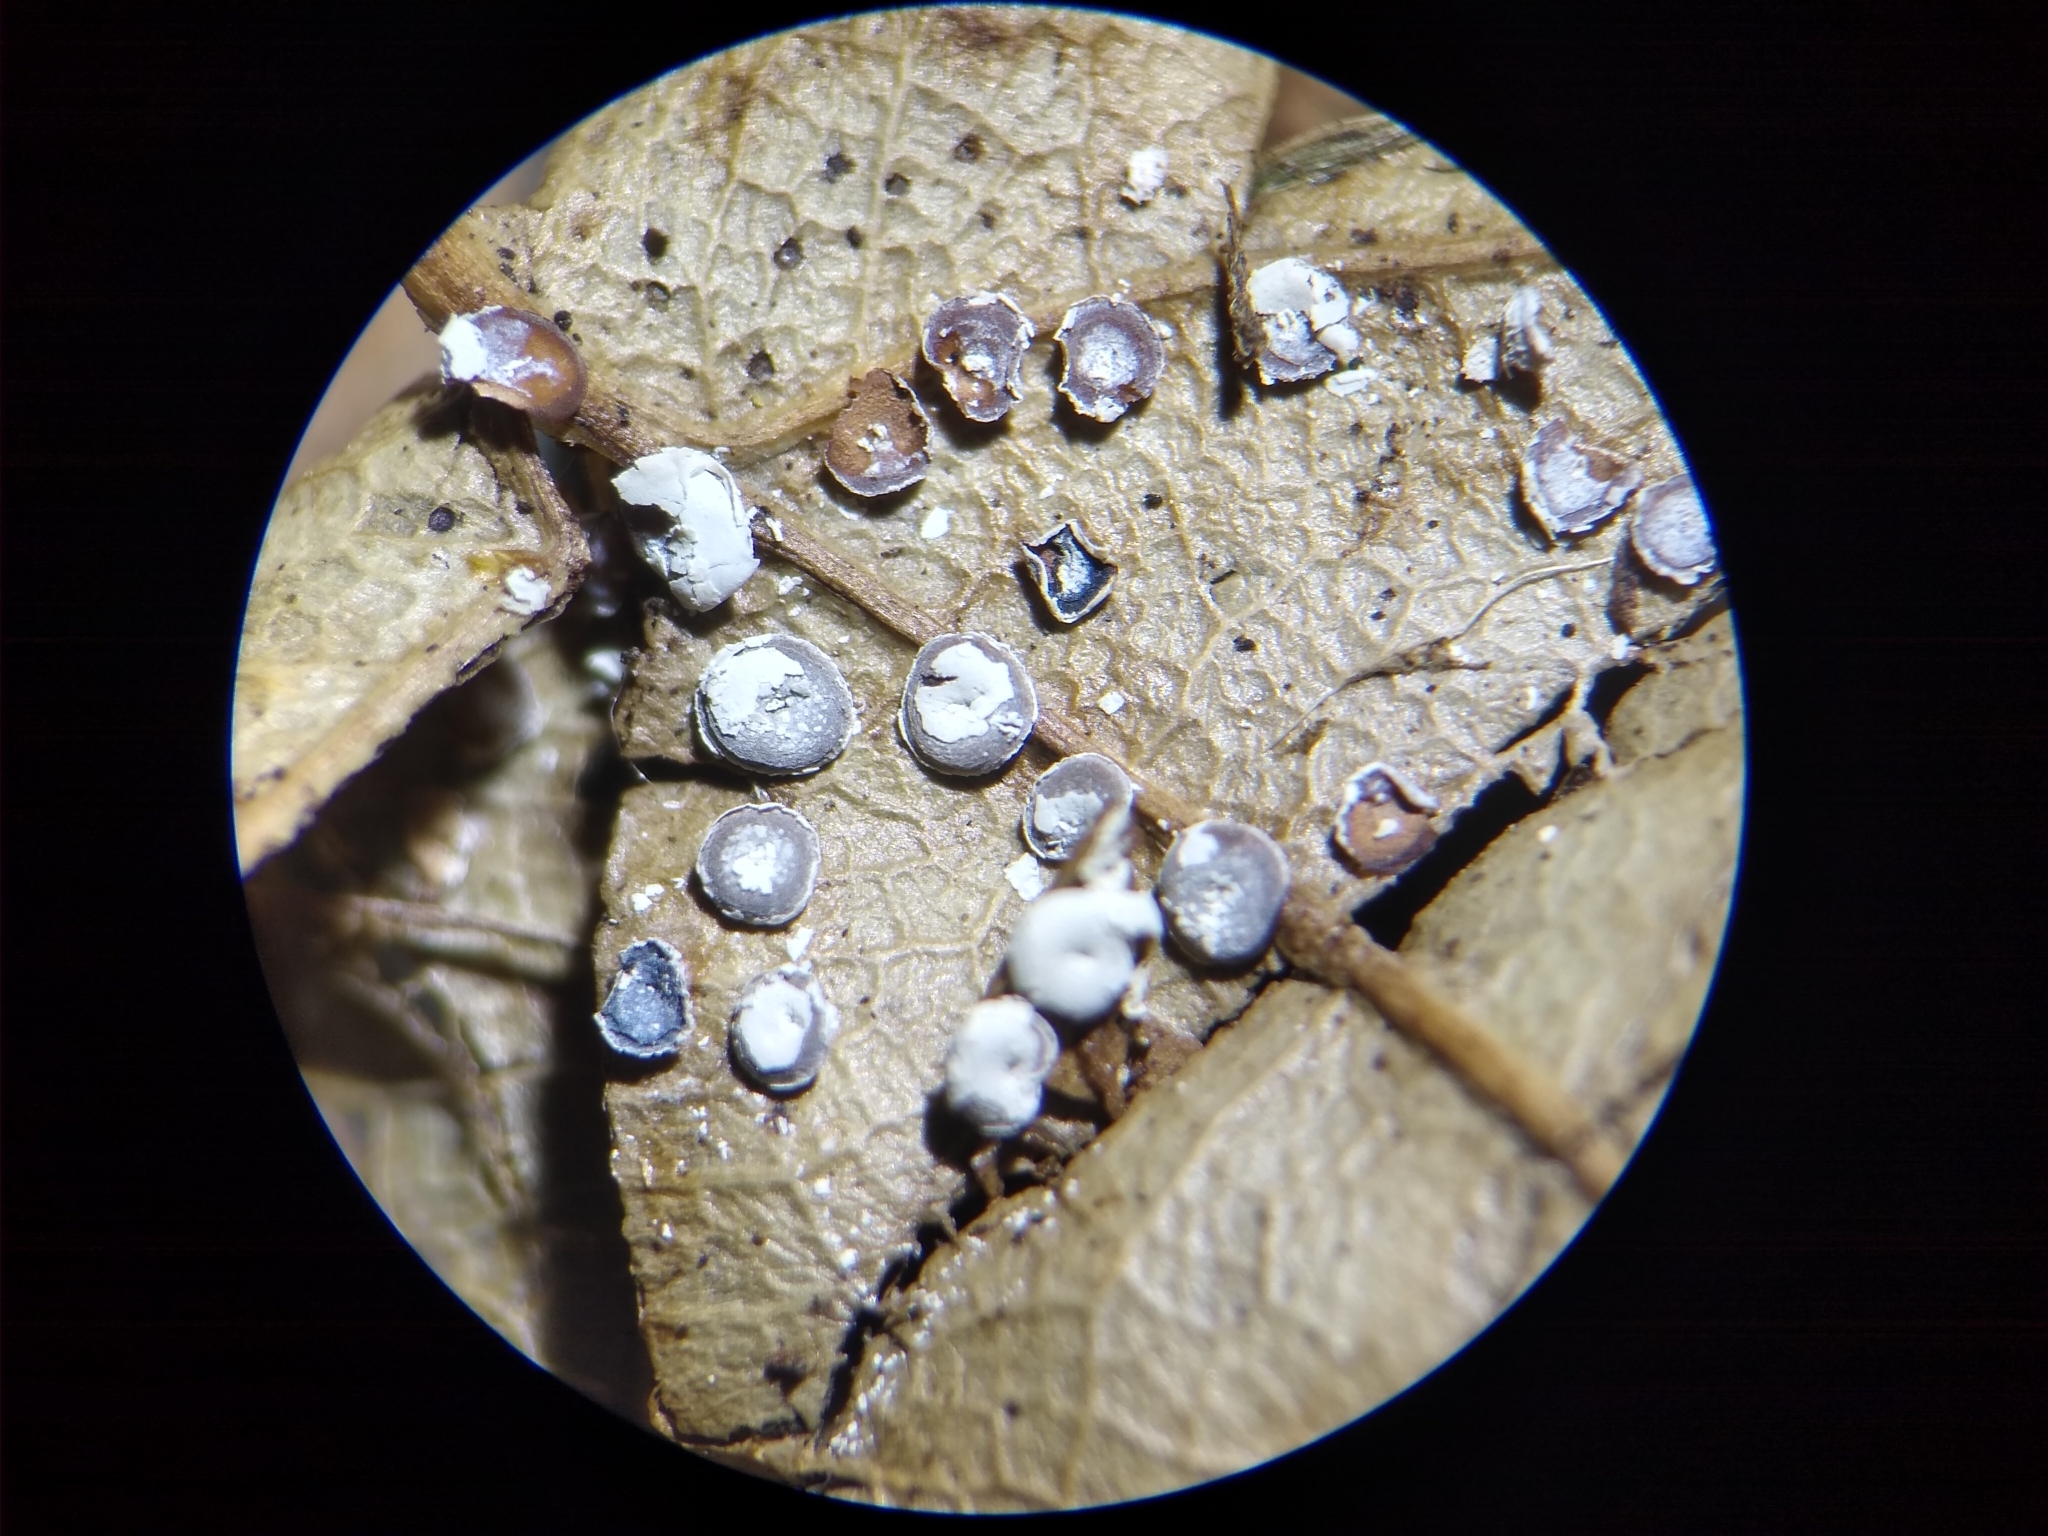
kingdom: Protozoa
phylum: Mycetozoa
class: Myxomycetes
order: Physarales
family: Didymiaceae
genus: Diderma
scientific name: Diderma hemisphaericum
